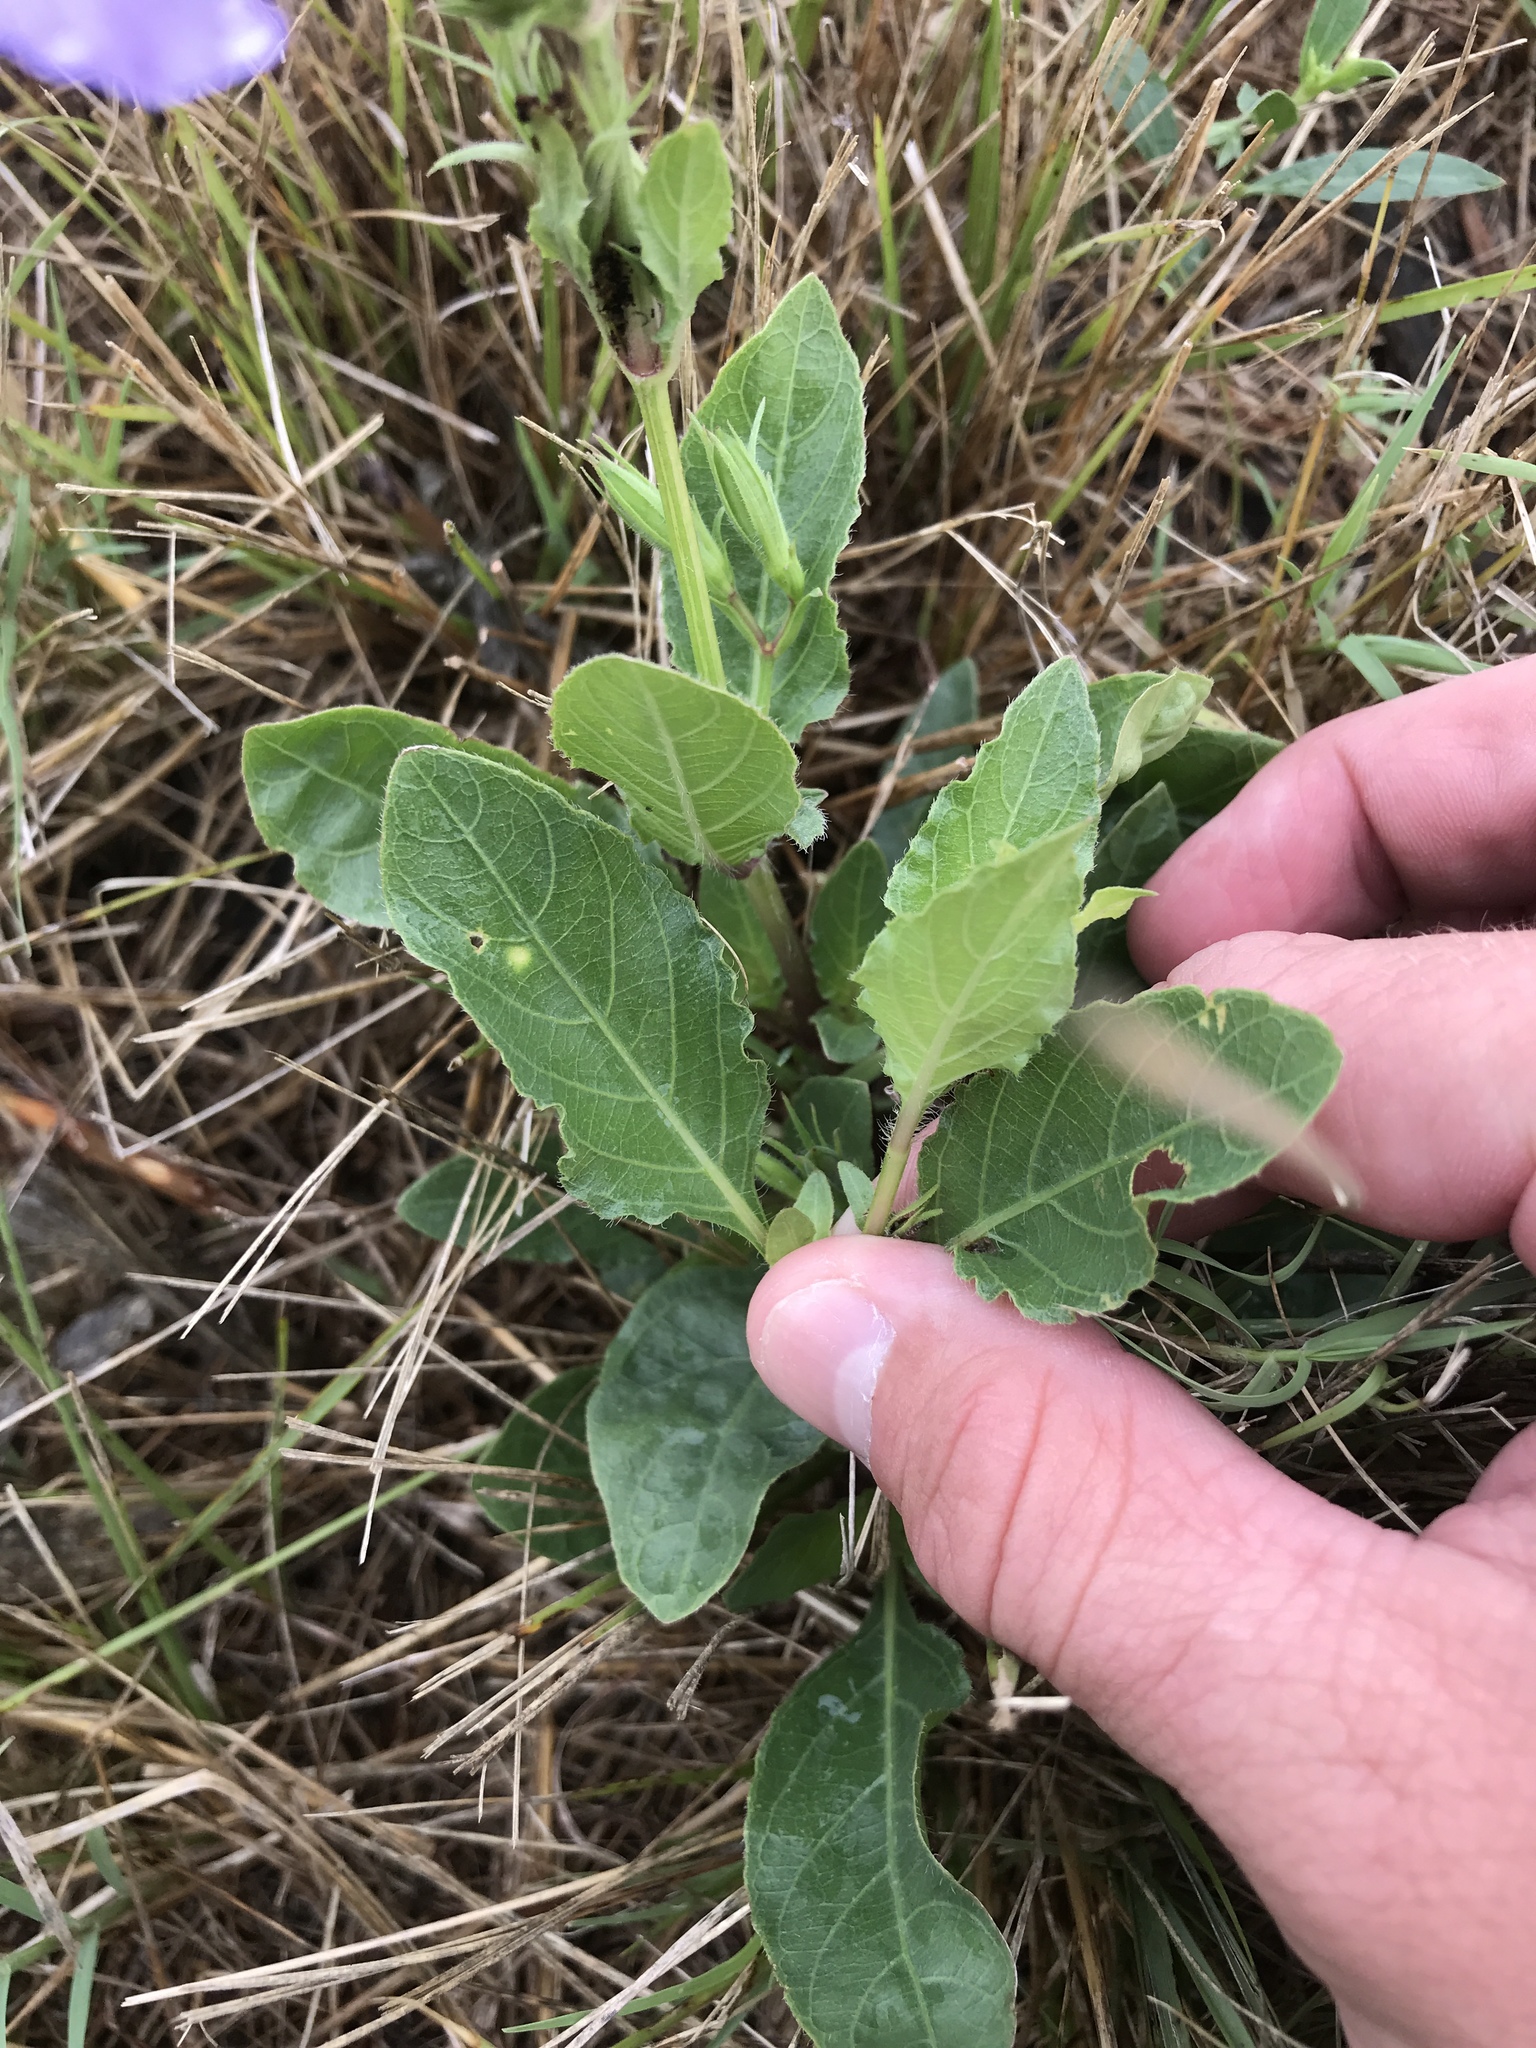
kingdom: Plantae
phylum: Tracheophyta
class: Magnoliopsida
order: Lamiales
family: Acanthaceae
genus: Ruellia
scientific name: Ruellia ciliatiflora
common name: Hairyflower wild petunia
